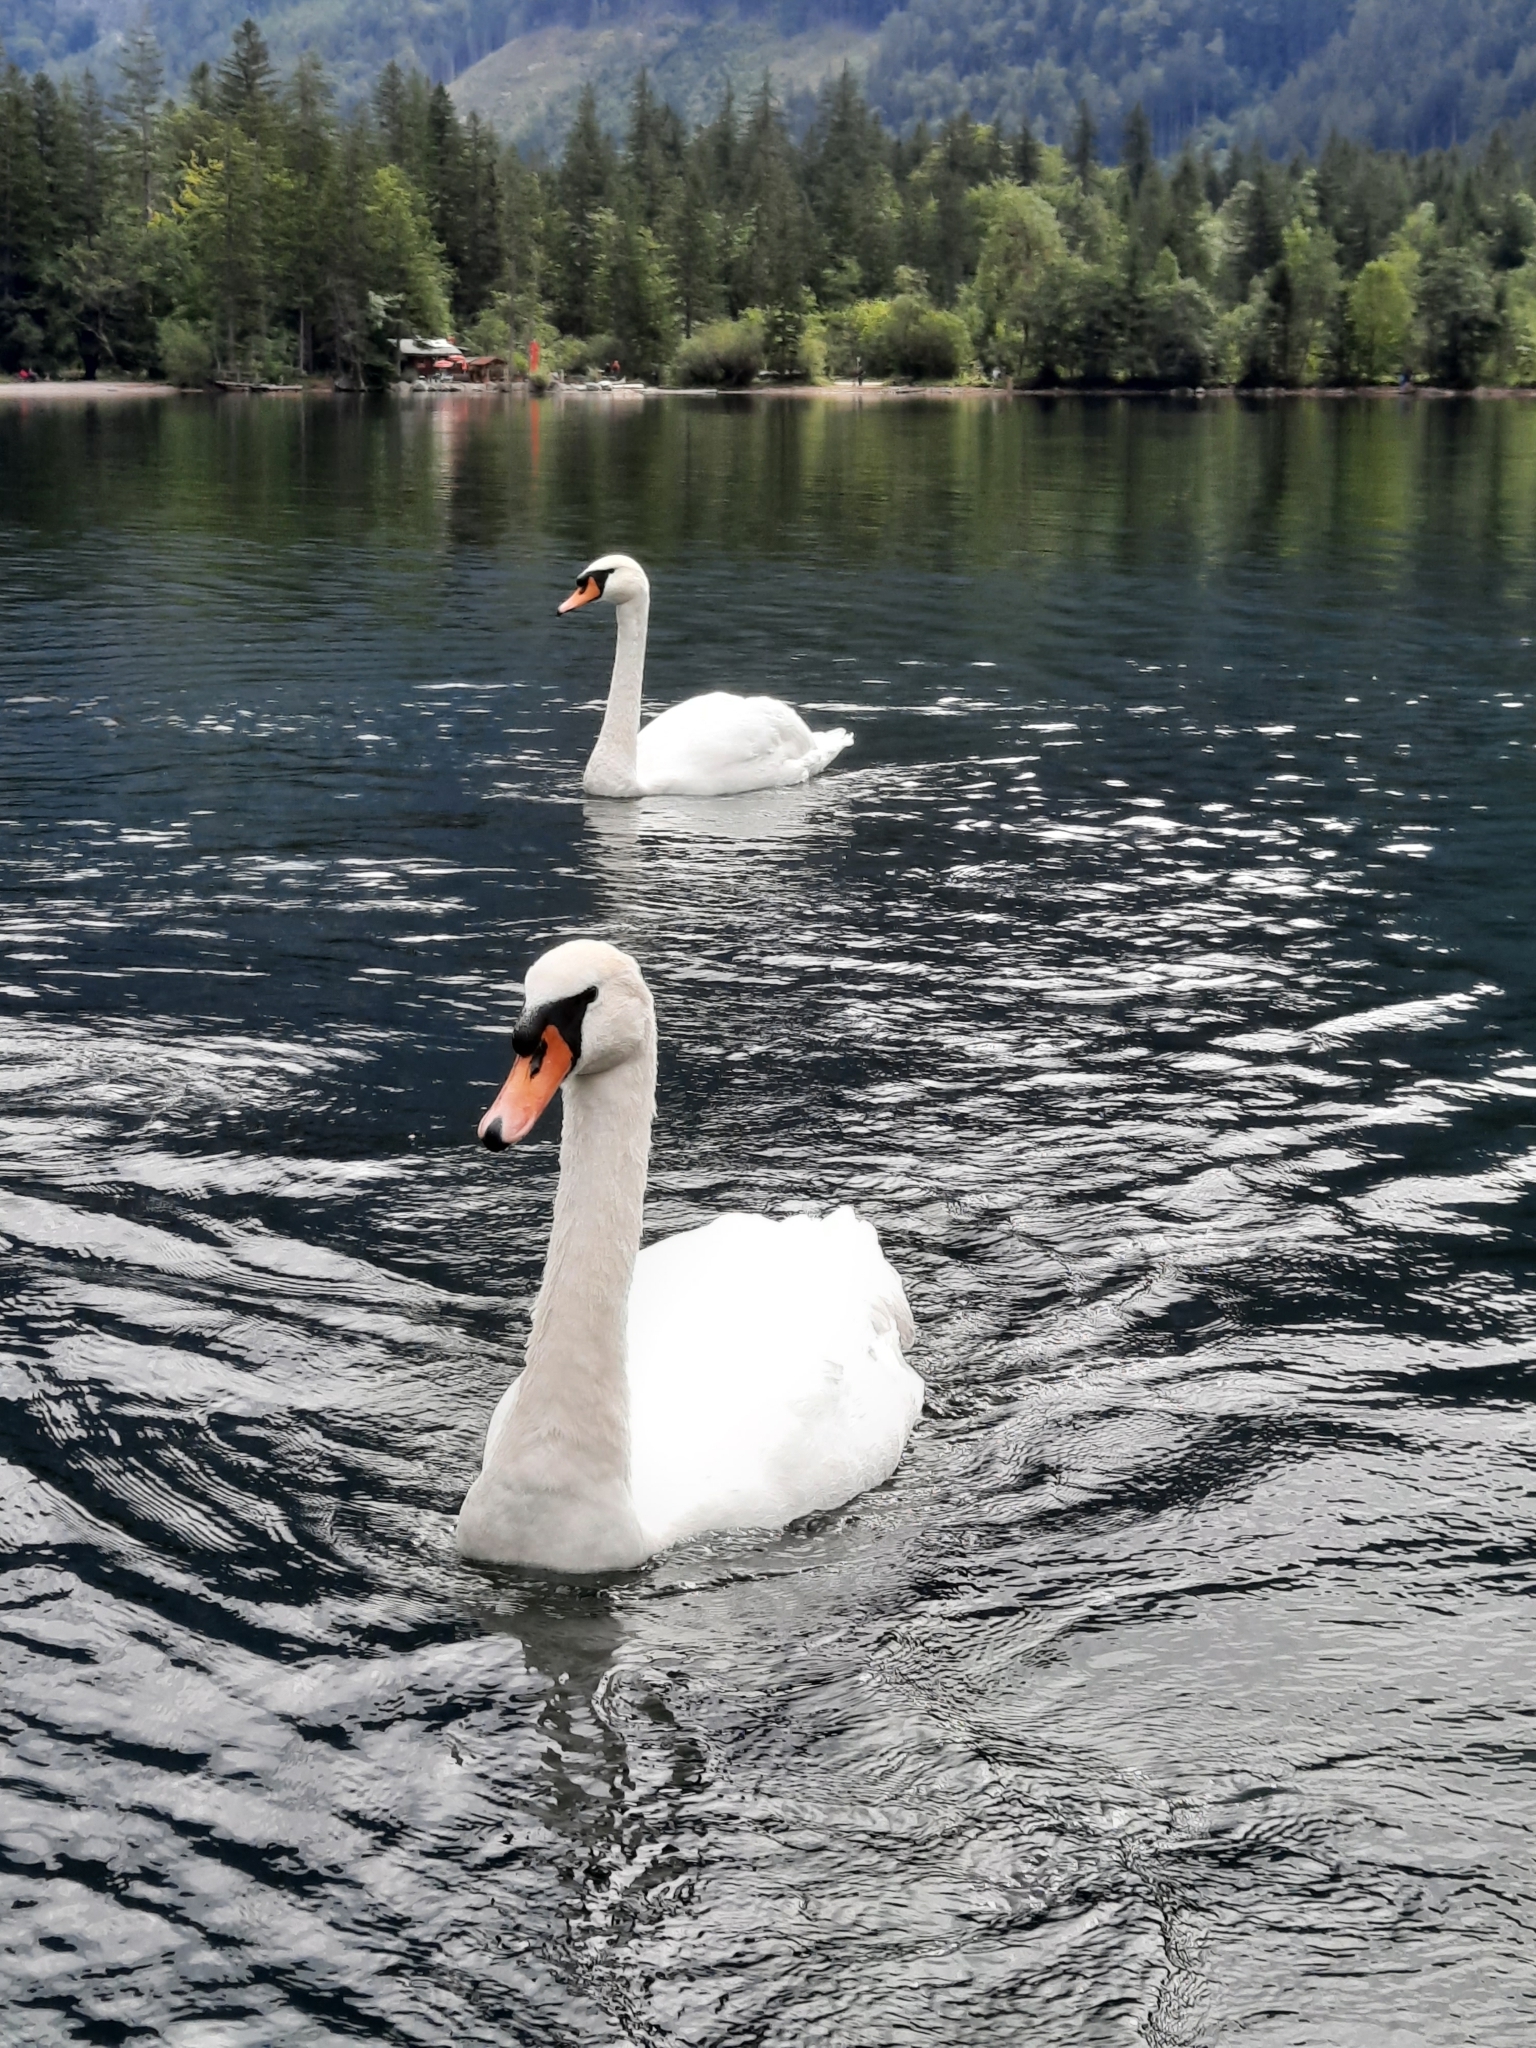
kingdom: Animalia
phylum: Chordata
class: Aves
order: Anseriformes
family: Anatidae
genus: Cygnus
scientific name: Cygnus olor
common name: Mute swan
